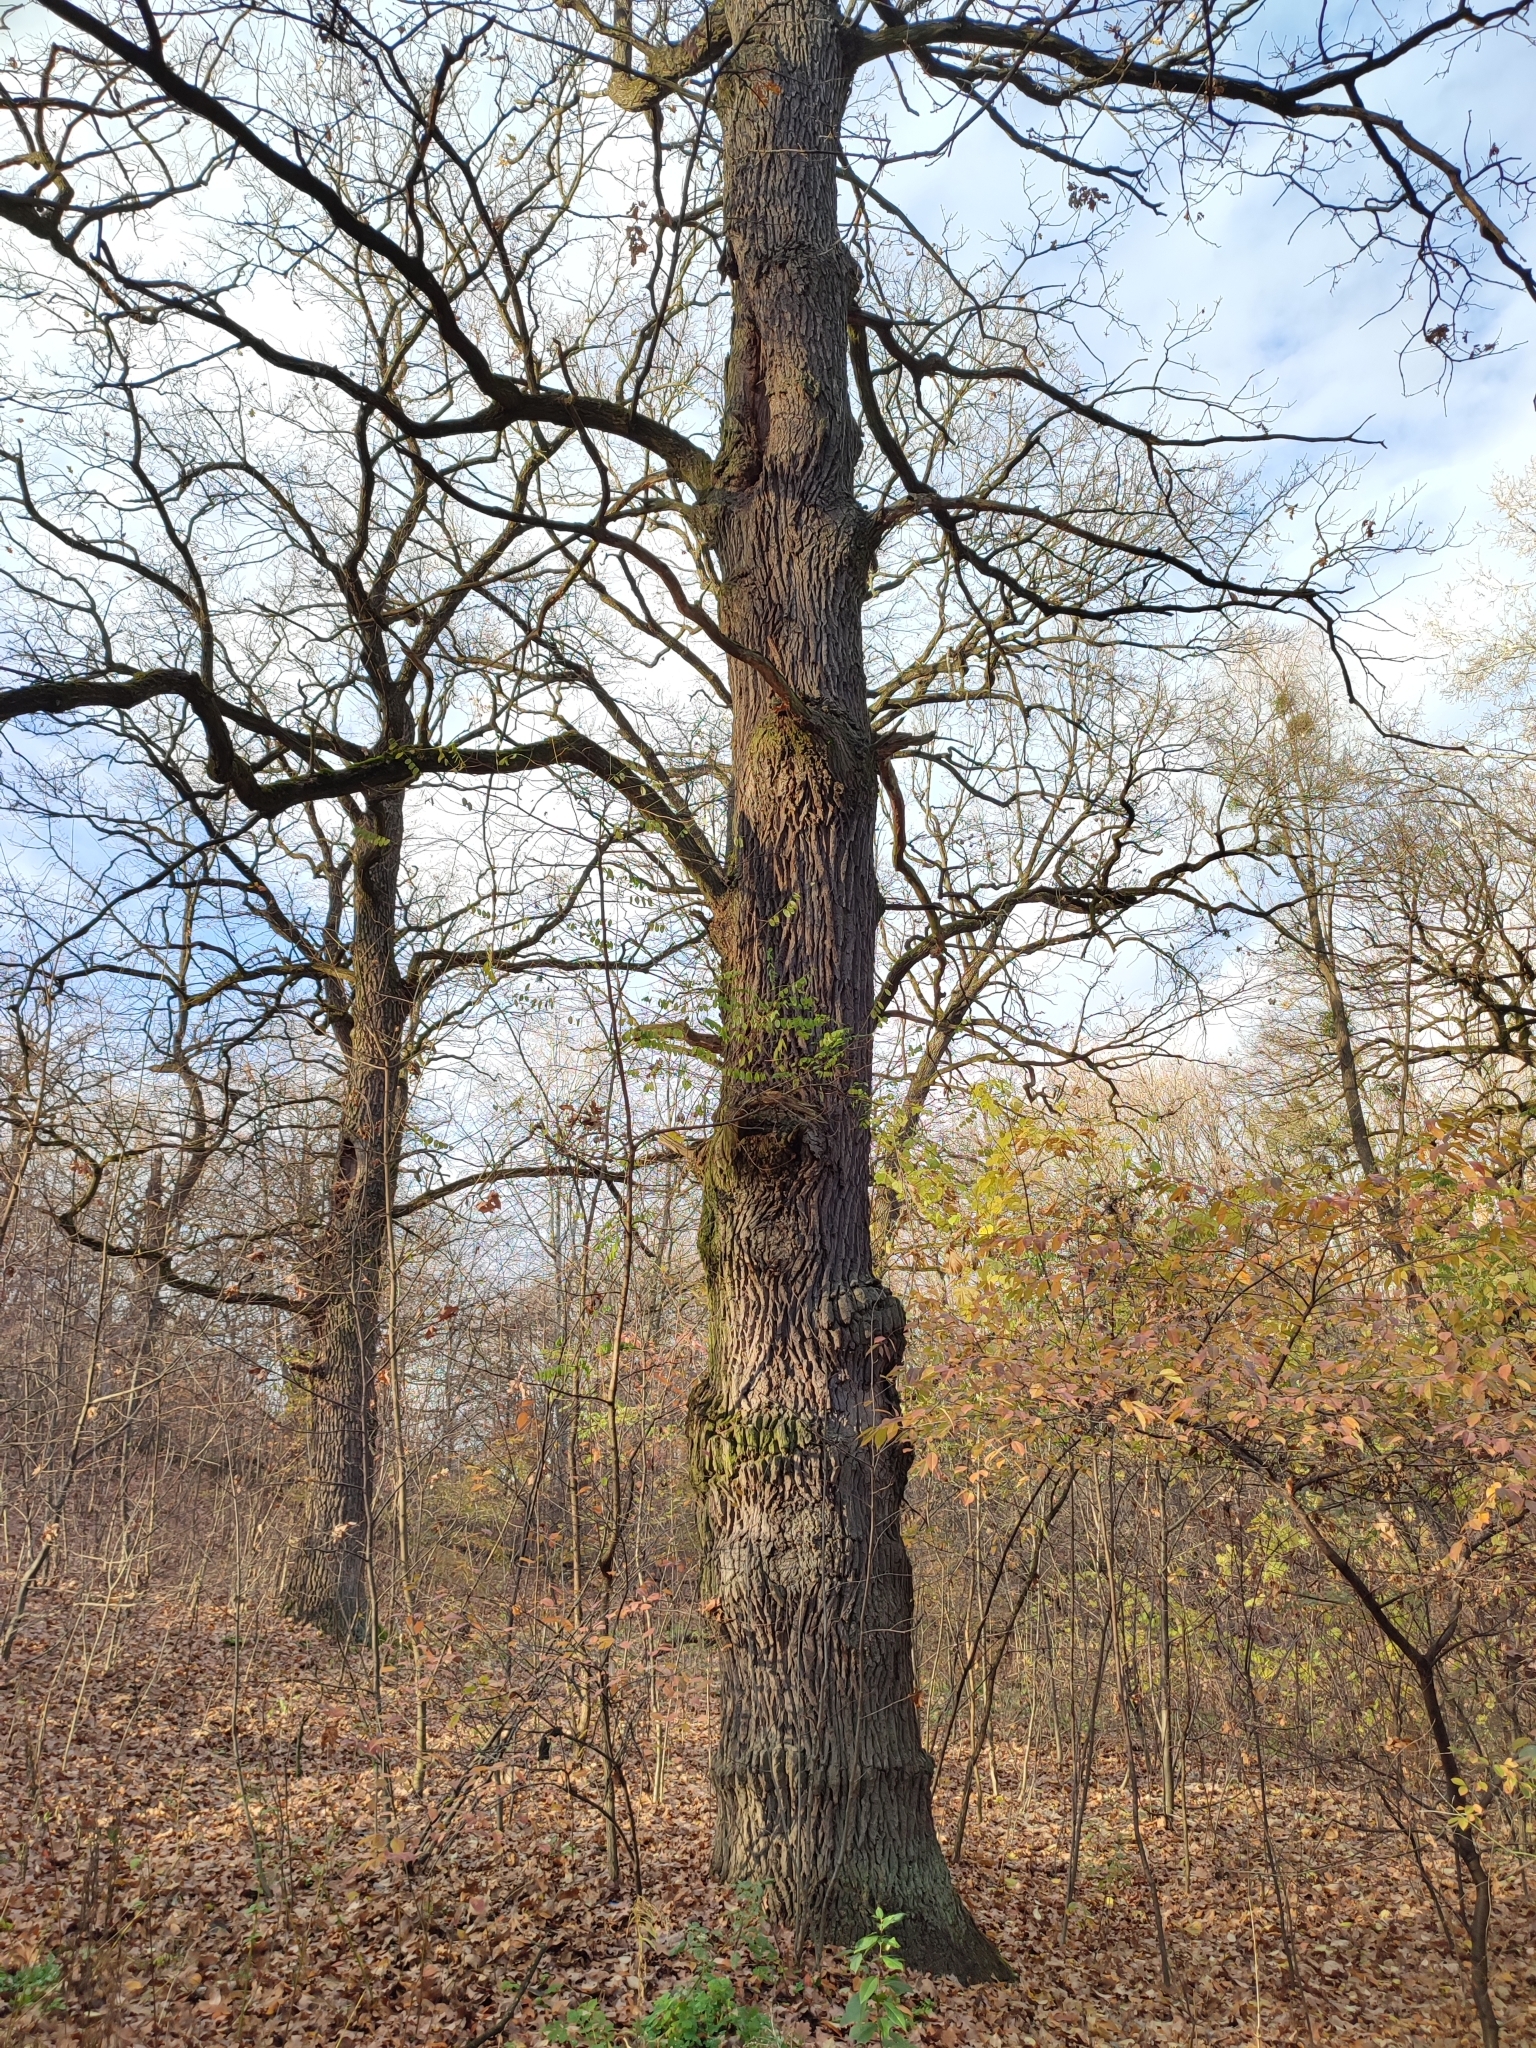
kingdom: Plantae
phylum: Tracheophyta
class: Magnoliopsida
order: Fagales
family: Fagaceae
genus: Quercus
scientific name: Quercus robur
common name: Pedunculate oak
